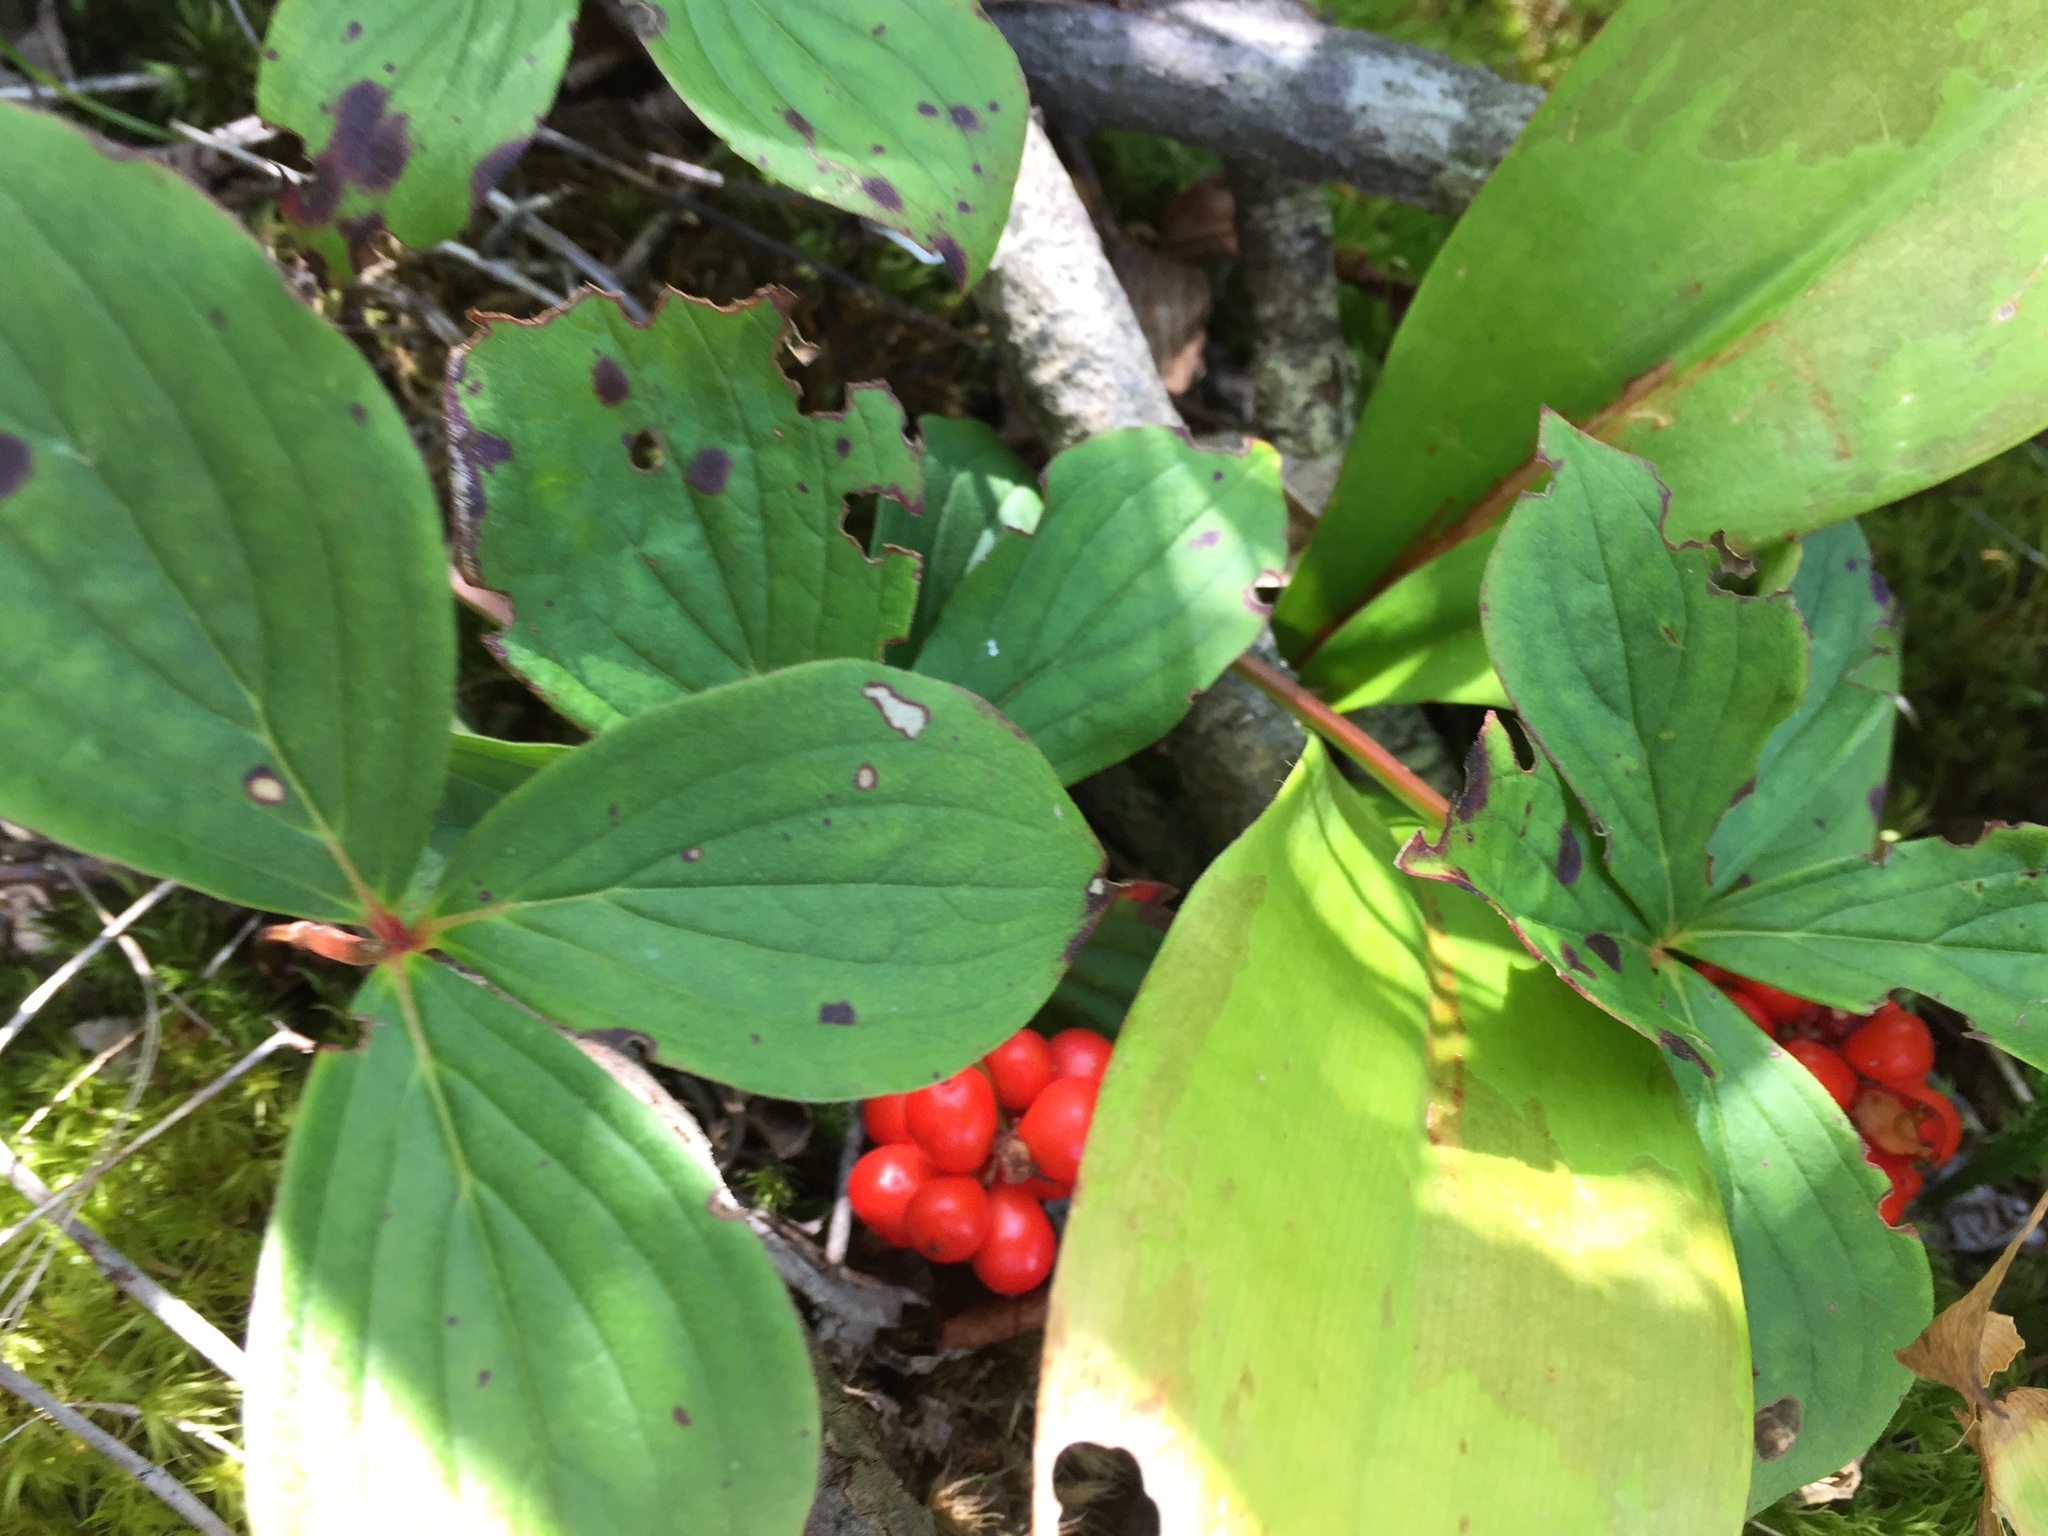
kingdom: Plantae
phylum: Tracheophyta
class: Magnoliopsida
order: Cornales
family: Cornaceae
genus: Cornus
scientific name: Cornus canadensis
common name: Creeping dogwood
